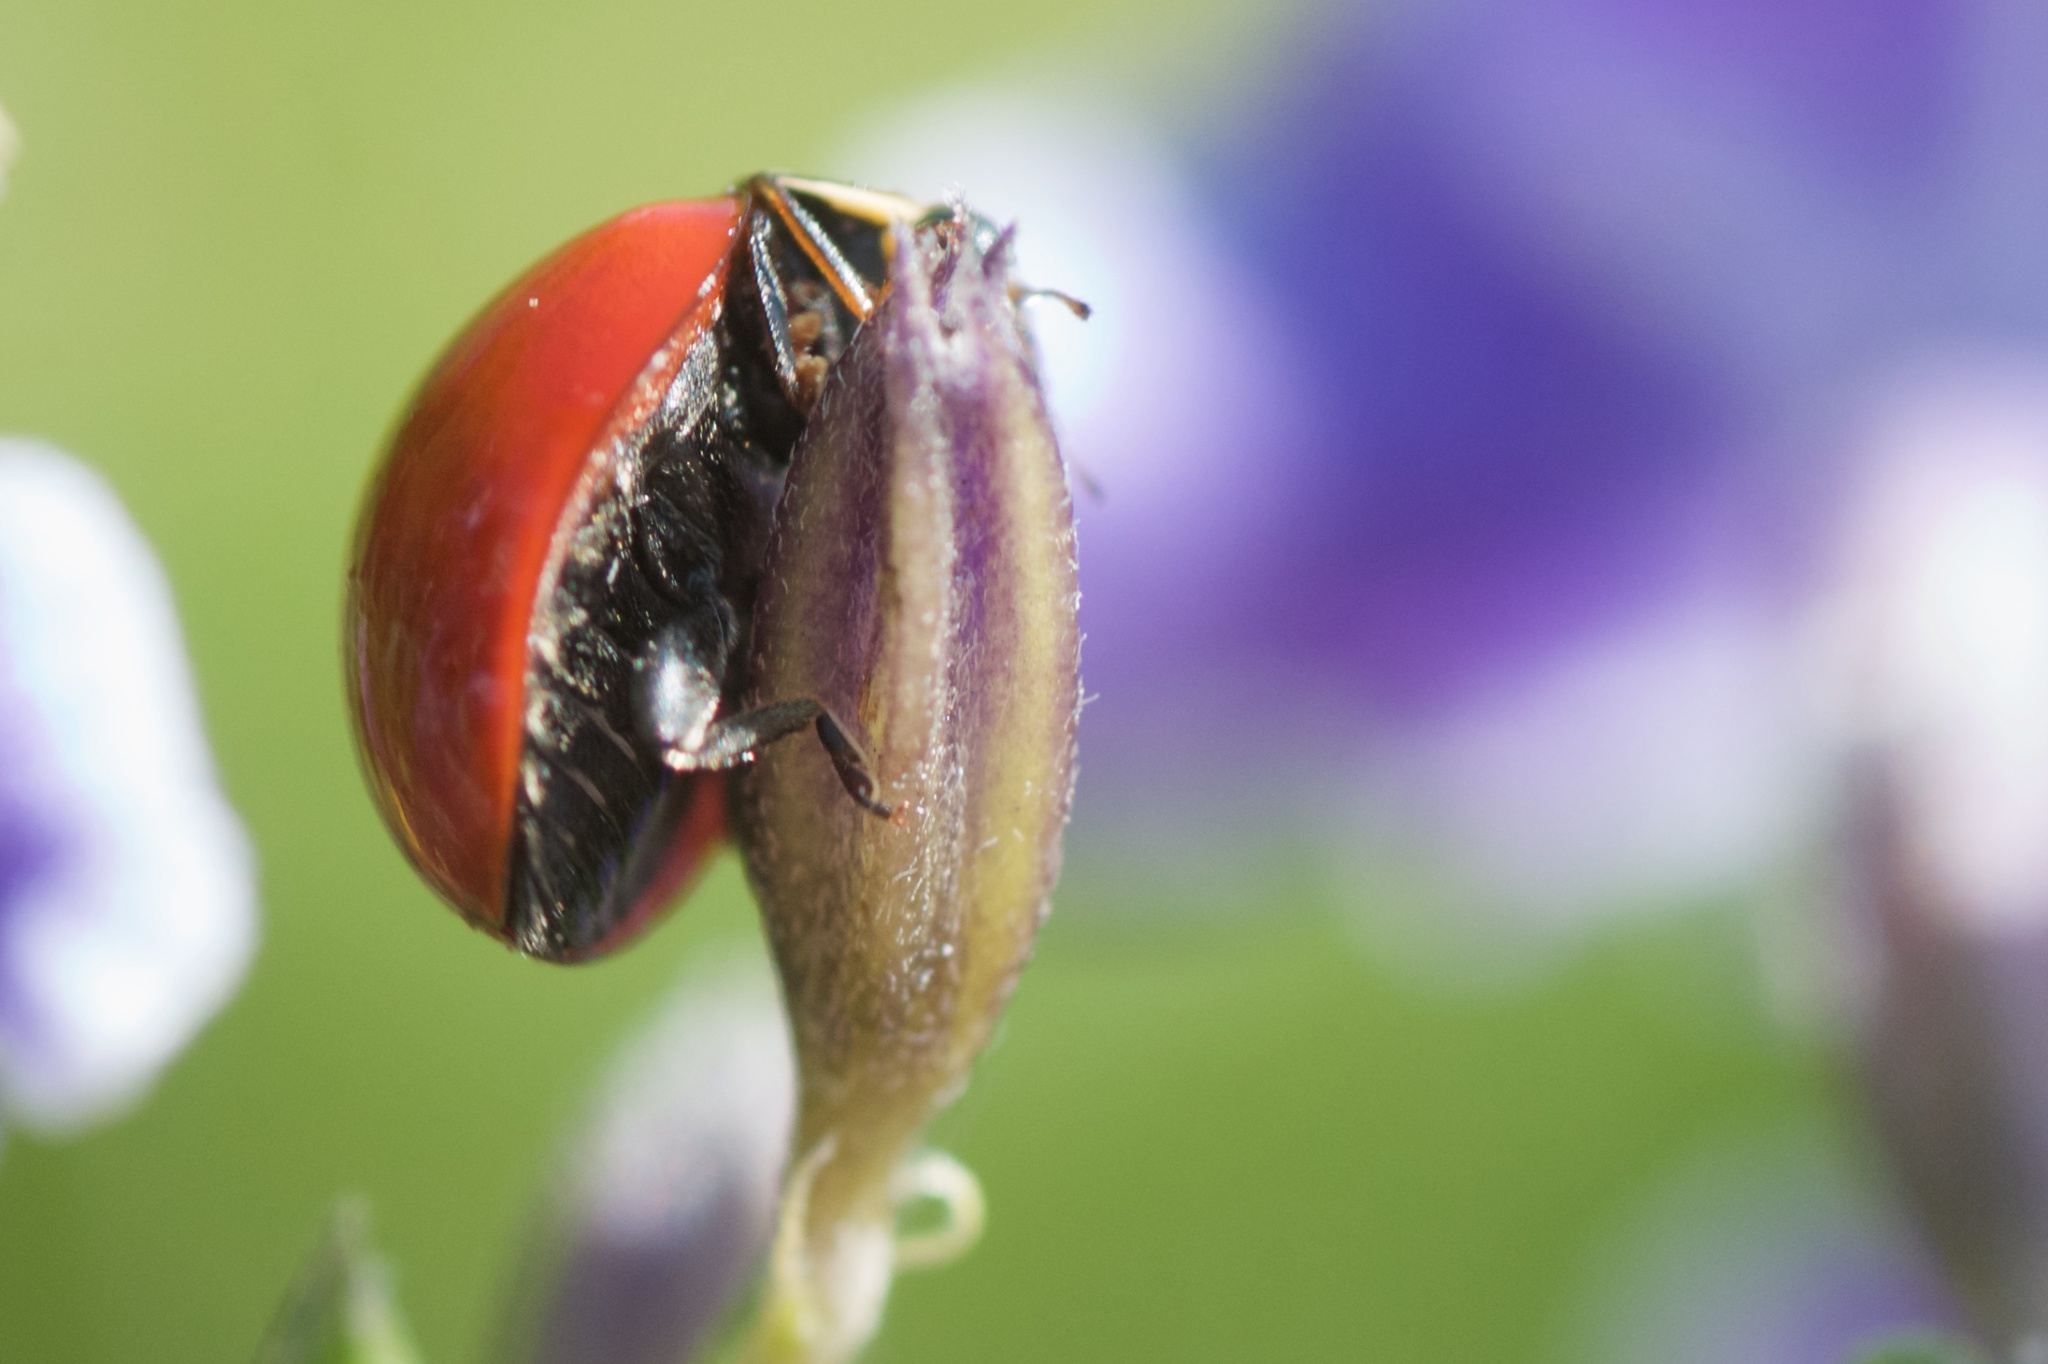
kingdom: Animalia
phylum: Arthropoda
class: Insecta
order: Coleoptera
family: Coccinellidae
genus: Cycloneda
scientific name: Cycloneda sanguinea
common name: Ladybird beetle
